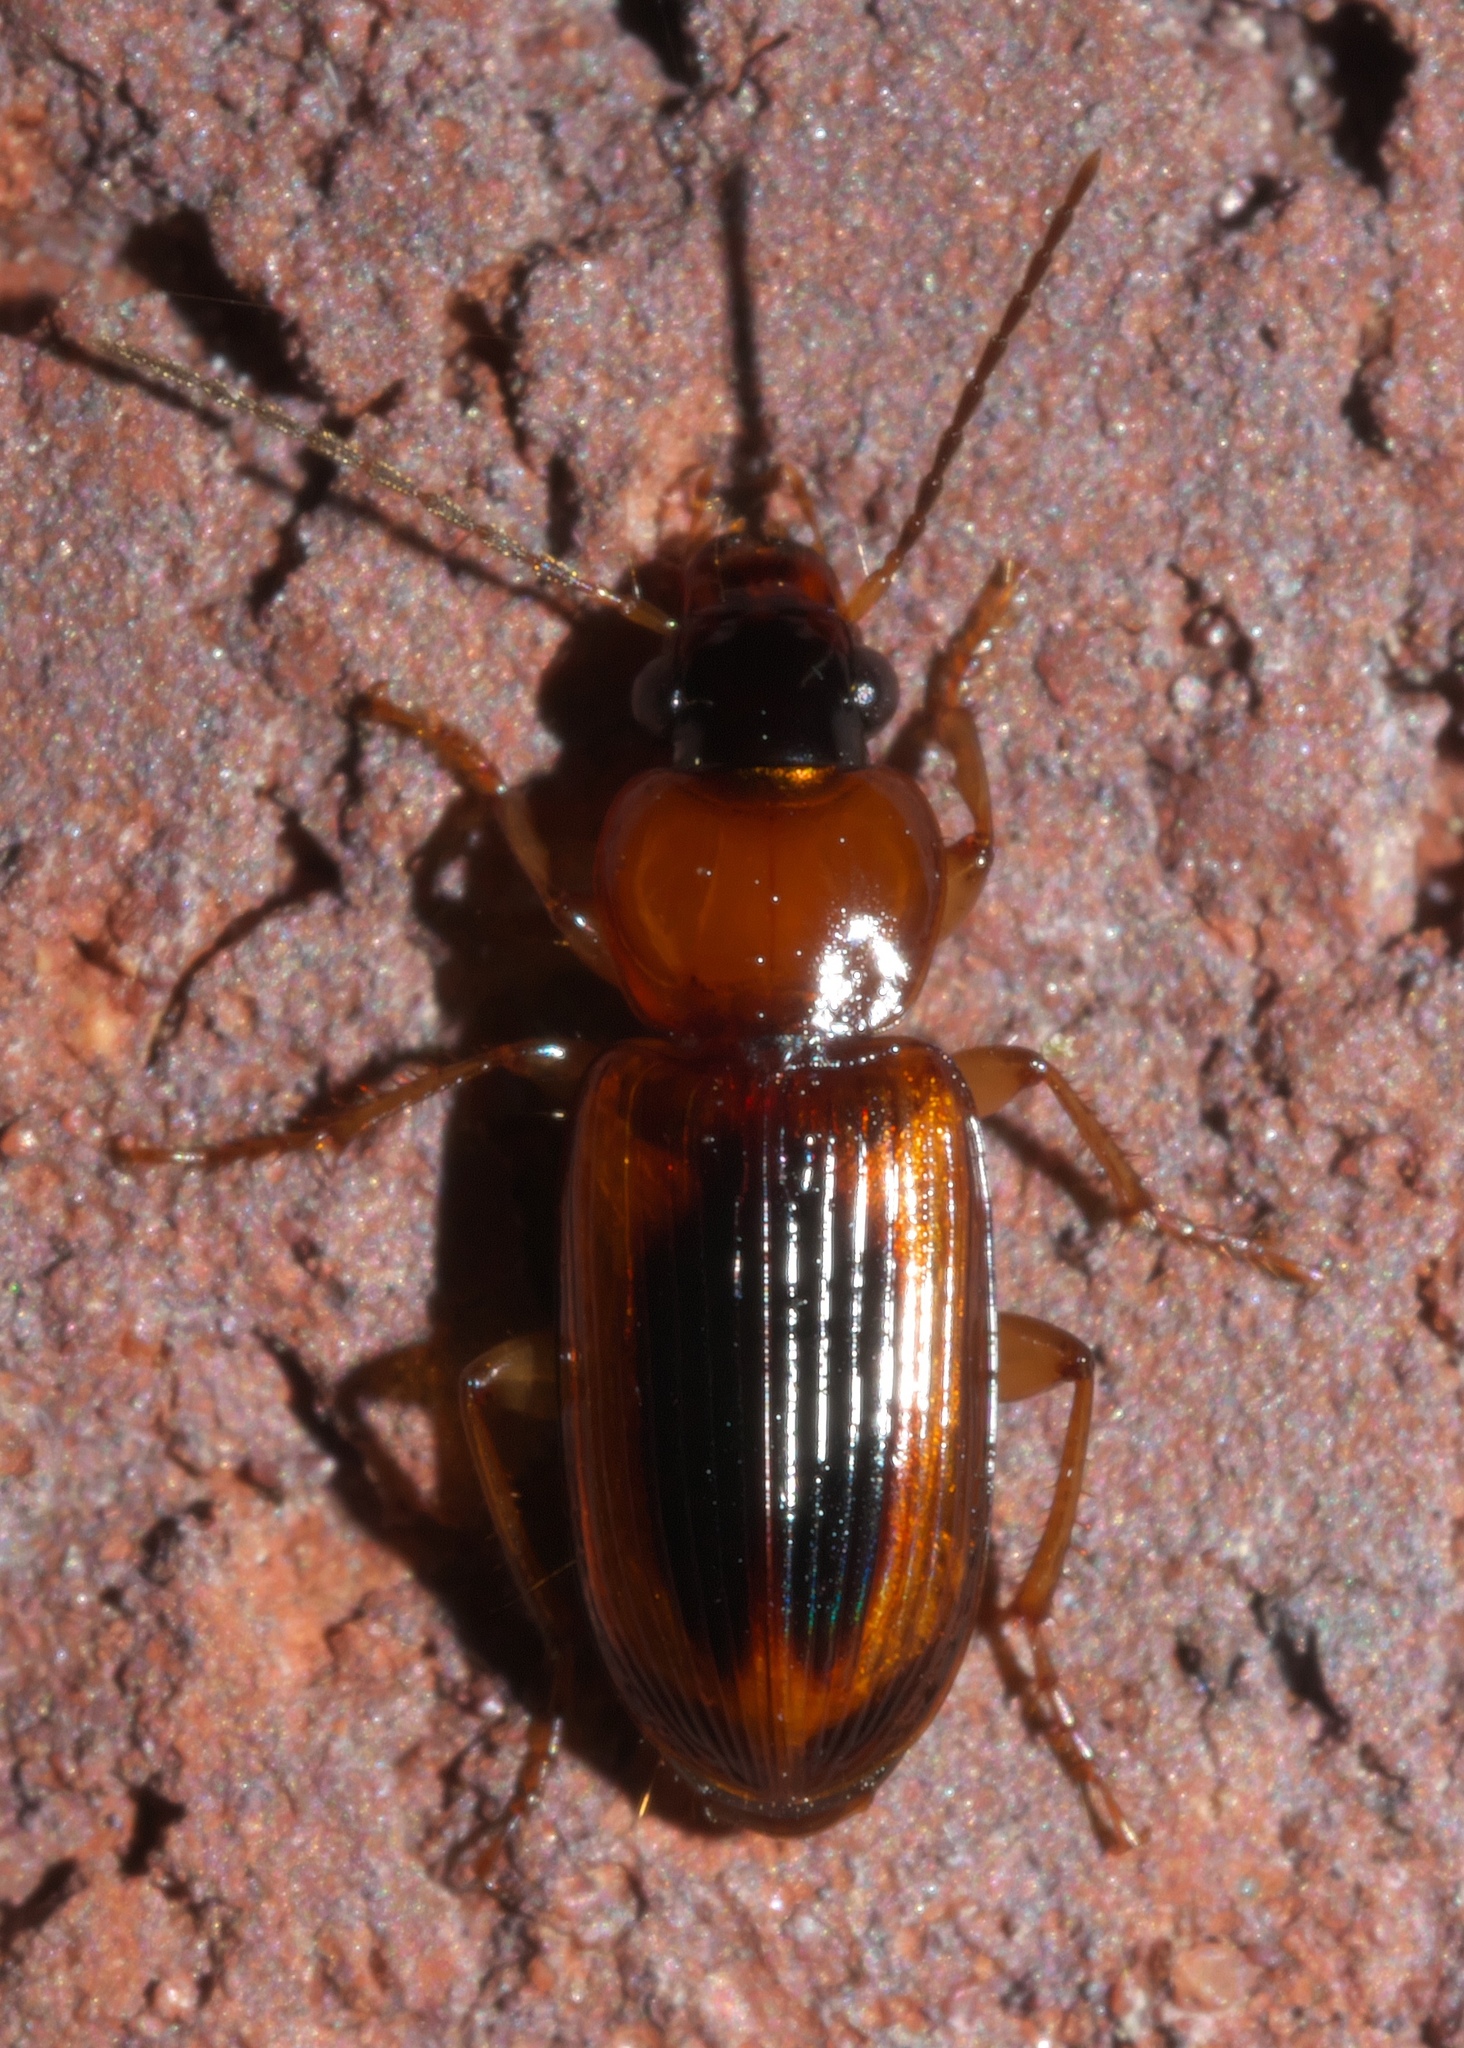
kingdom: Animalia
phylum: Arthropoda
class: Insecta
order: Coleoptera
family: Carabidae
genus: Stenolophus
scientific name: Stenolophus dissimilis
